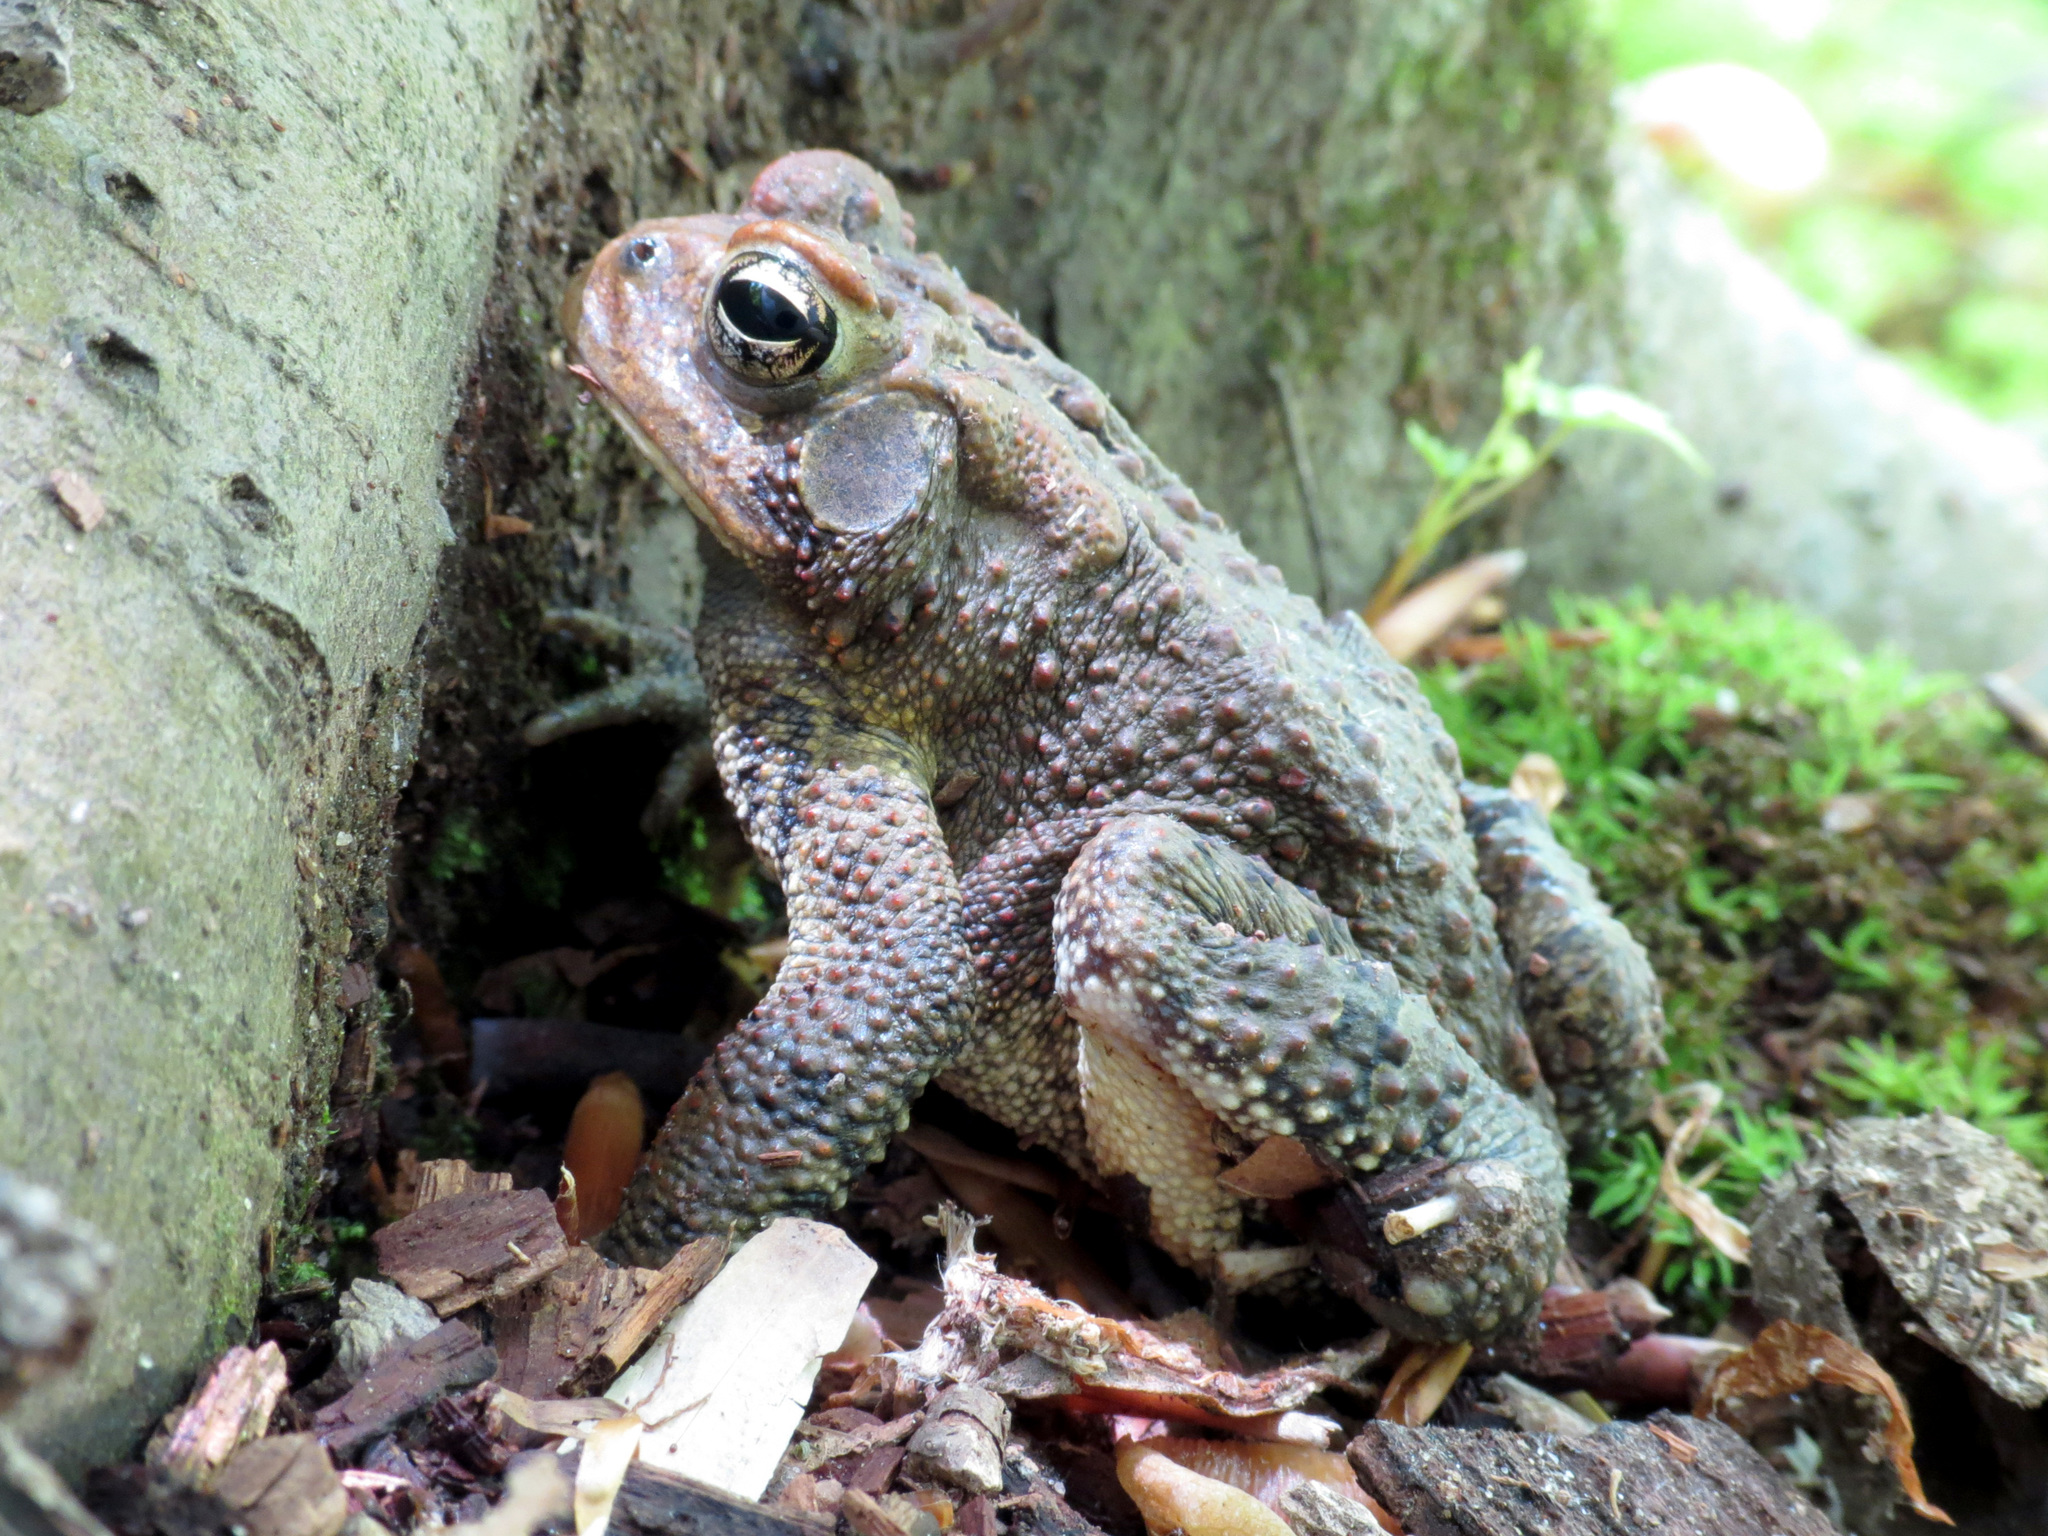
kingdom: Animalia
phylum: Chordata
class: Amphibia
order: Anura
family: Bufonidae
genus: Anaxyrus
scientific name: Anaxyrus americanus
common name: American toad
